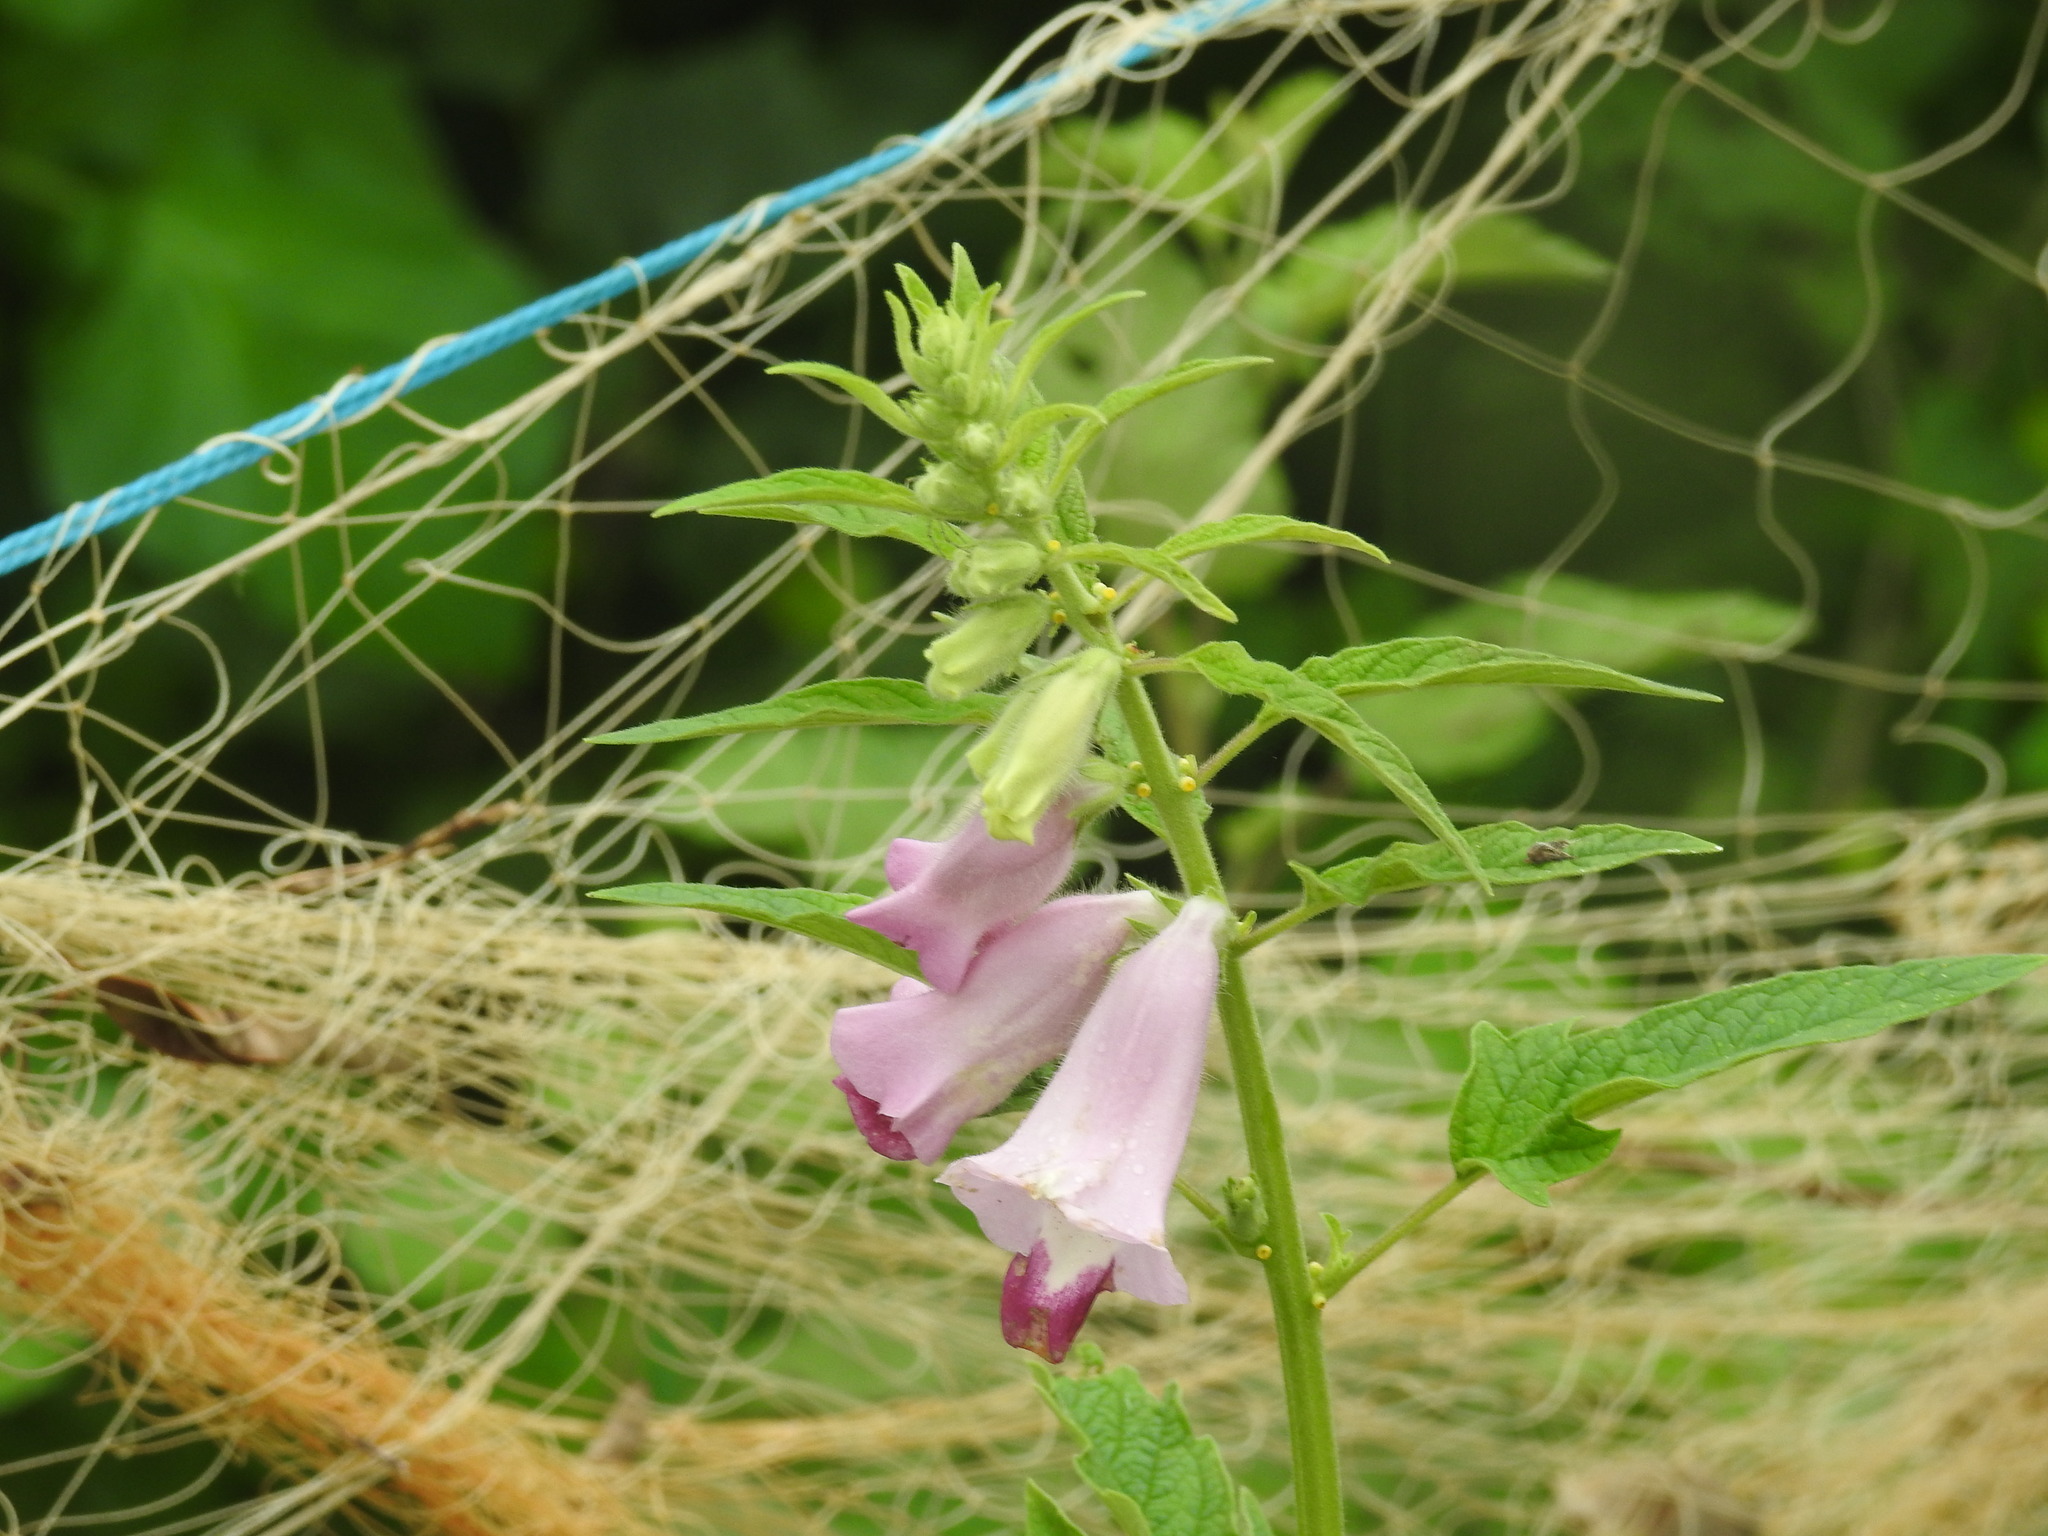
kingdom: Plantae
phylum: Tracheophyta
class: Magnoliopsida
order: Lamiales
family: Pedaliaceae
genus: Sesamum
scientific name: Sesamum indicum
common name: Sesame
